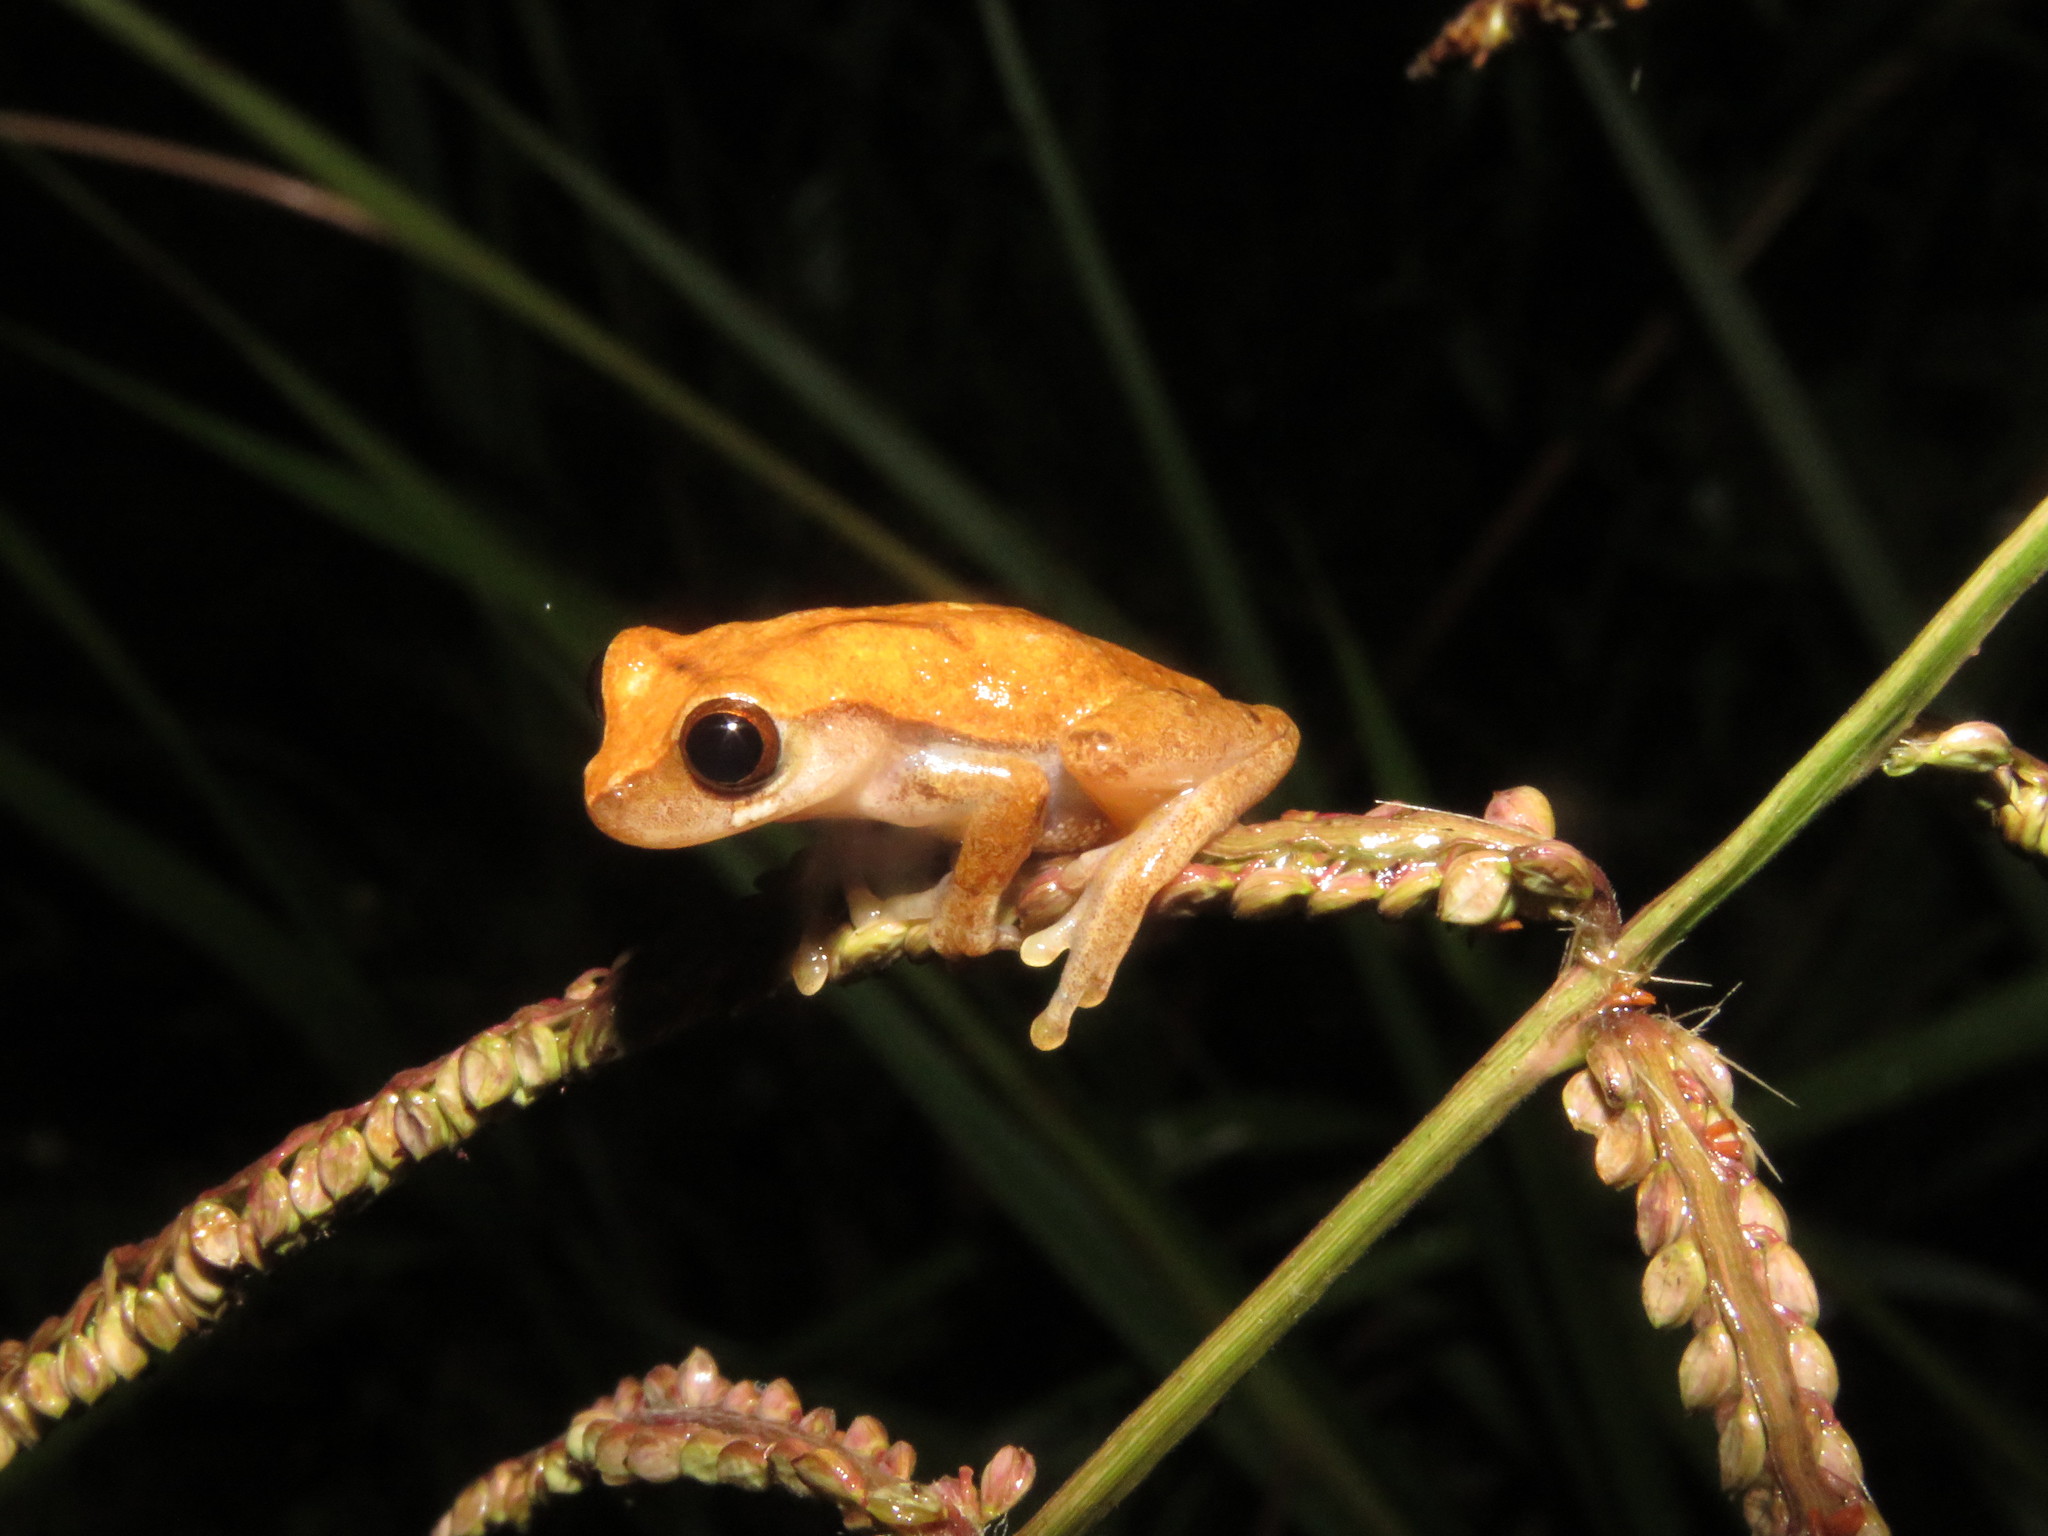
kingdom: Animalia
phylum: Chordata
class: Amphibia
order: Anura
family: Hylidae
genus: Dendropsophus
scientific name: Dendropsophus pauiniensis
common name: Pauini treefrog
